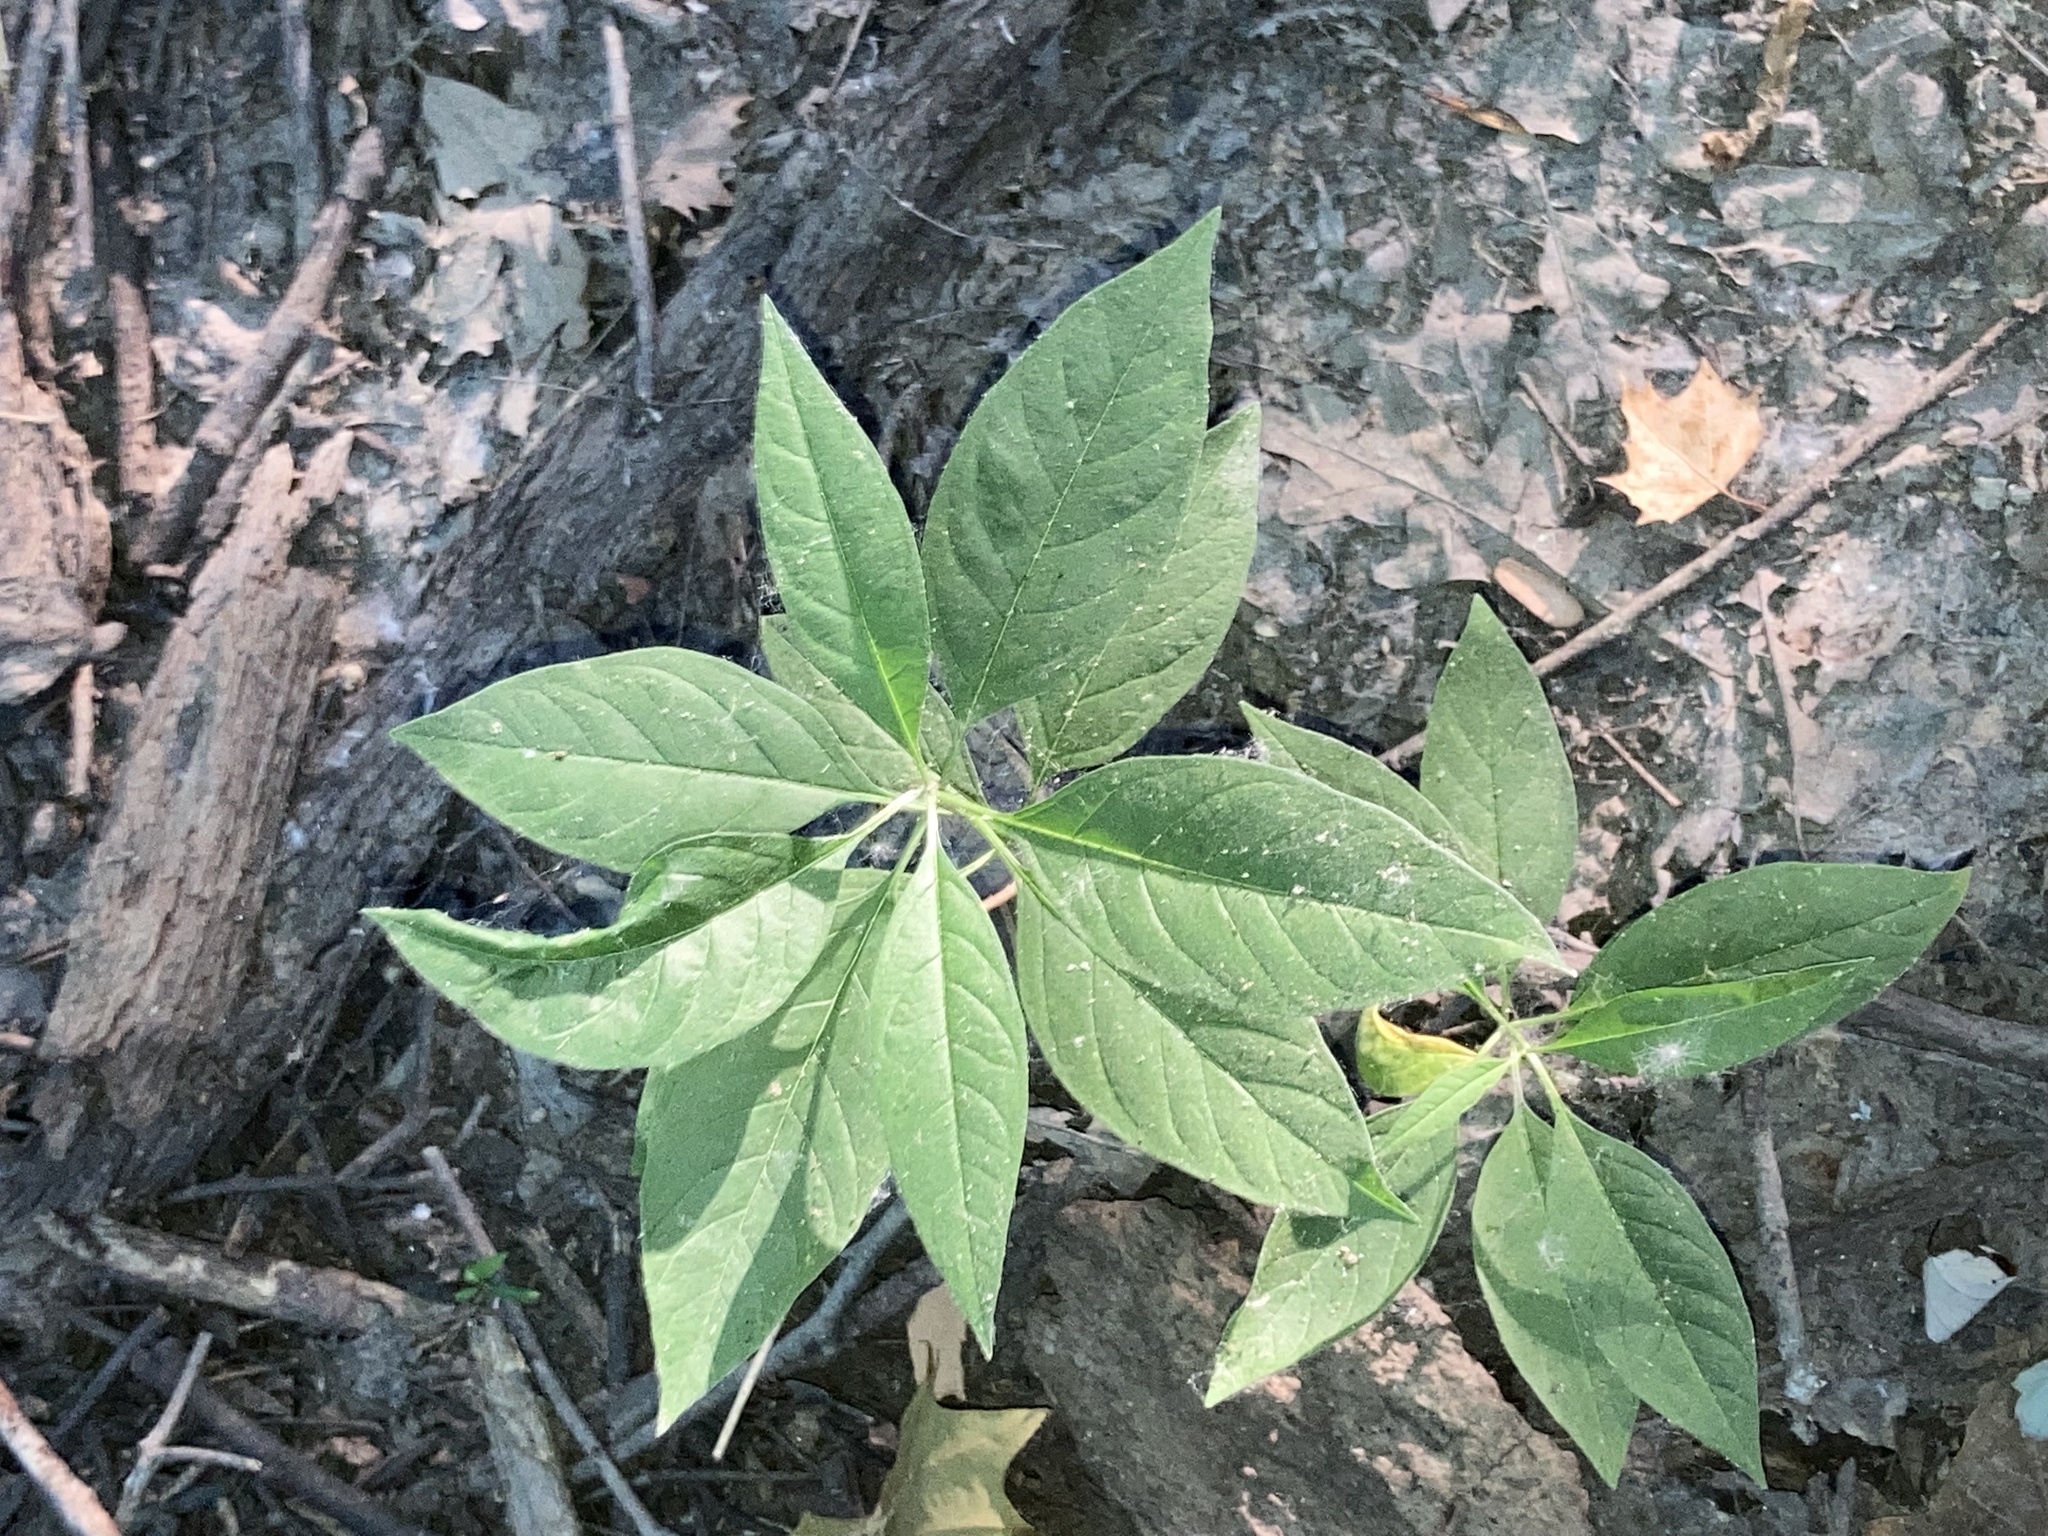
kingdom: Plantae
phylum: Tracheophyta
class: Magnoliopsida
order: Gentianales
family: Apocynaceae
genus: Asclepias
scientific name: Asclepias perennis
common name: Smooth-seed milkweed
